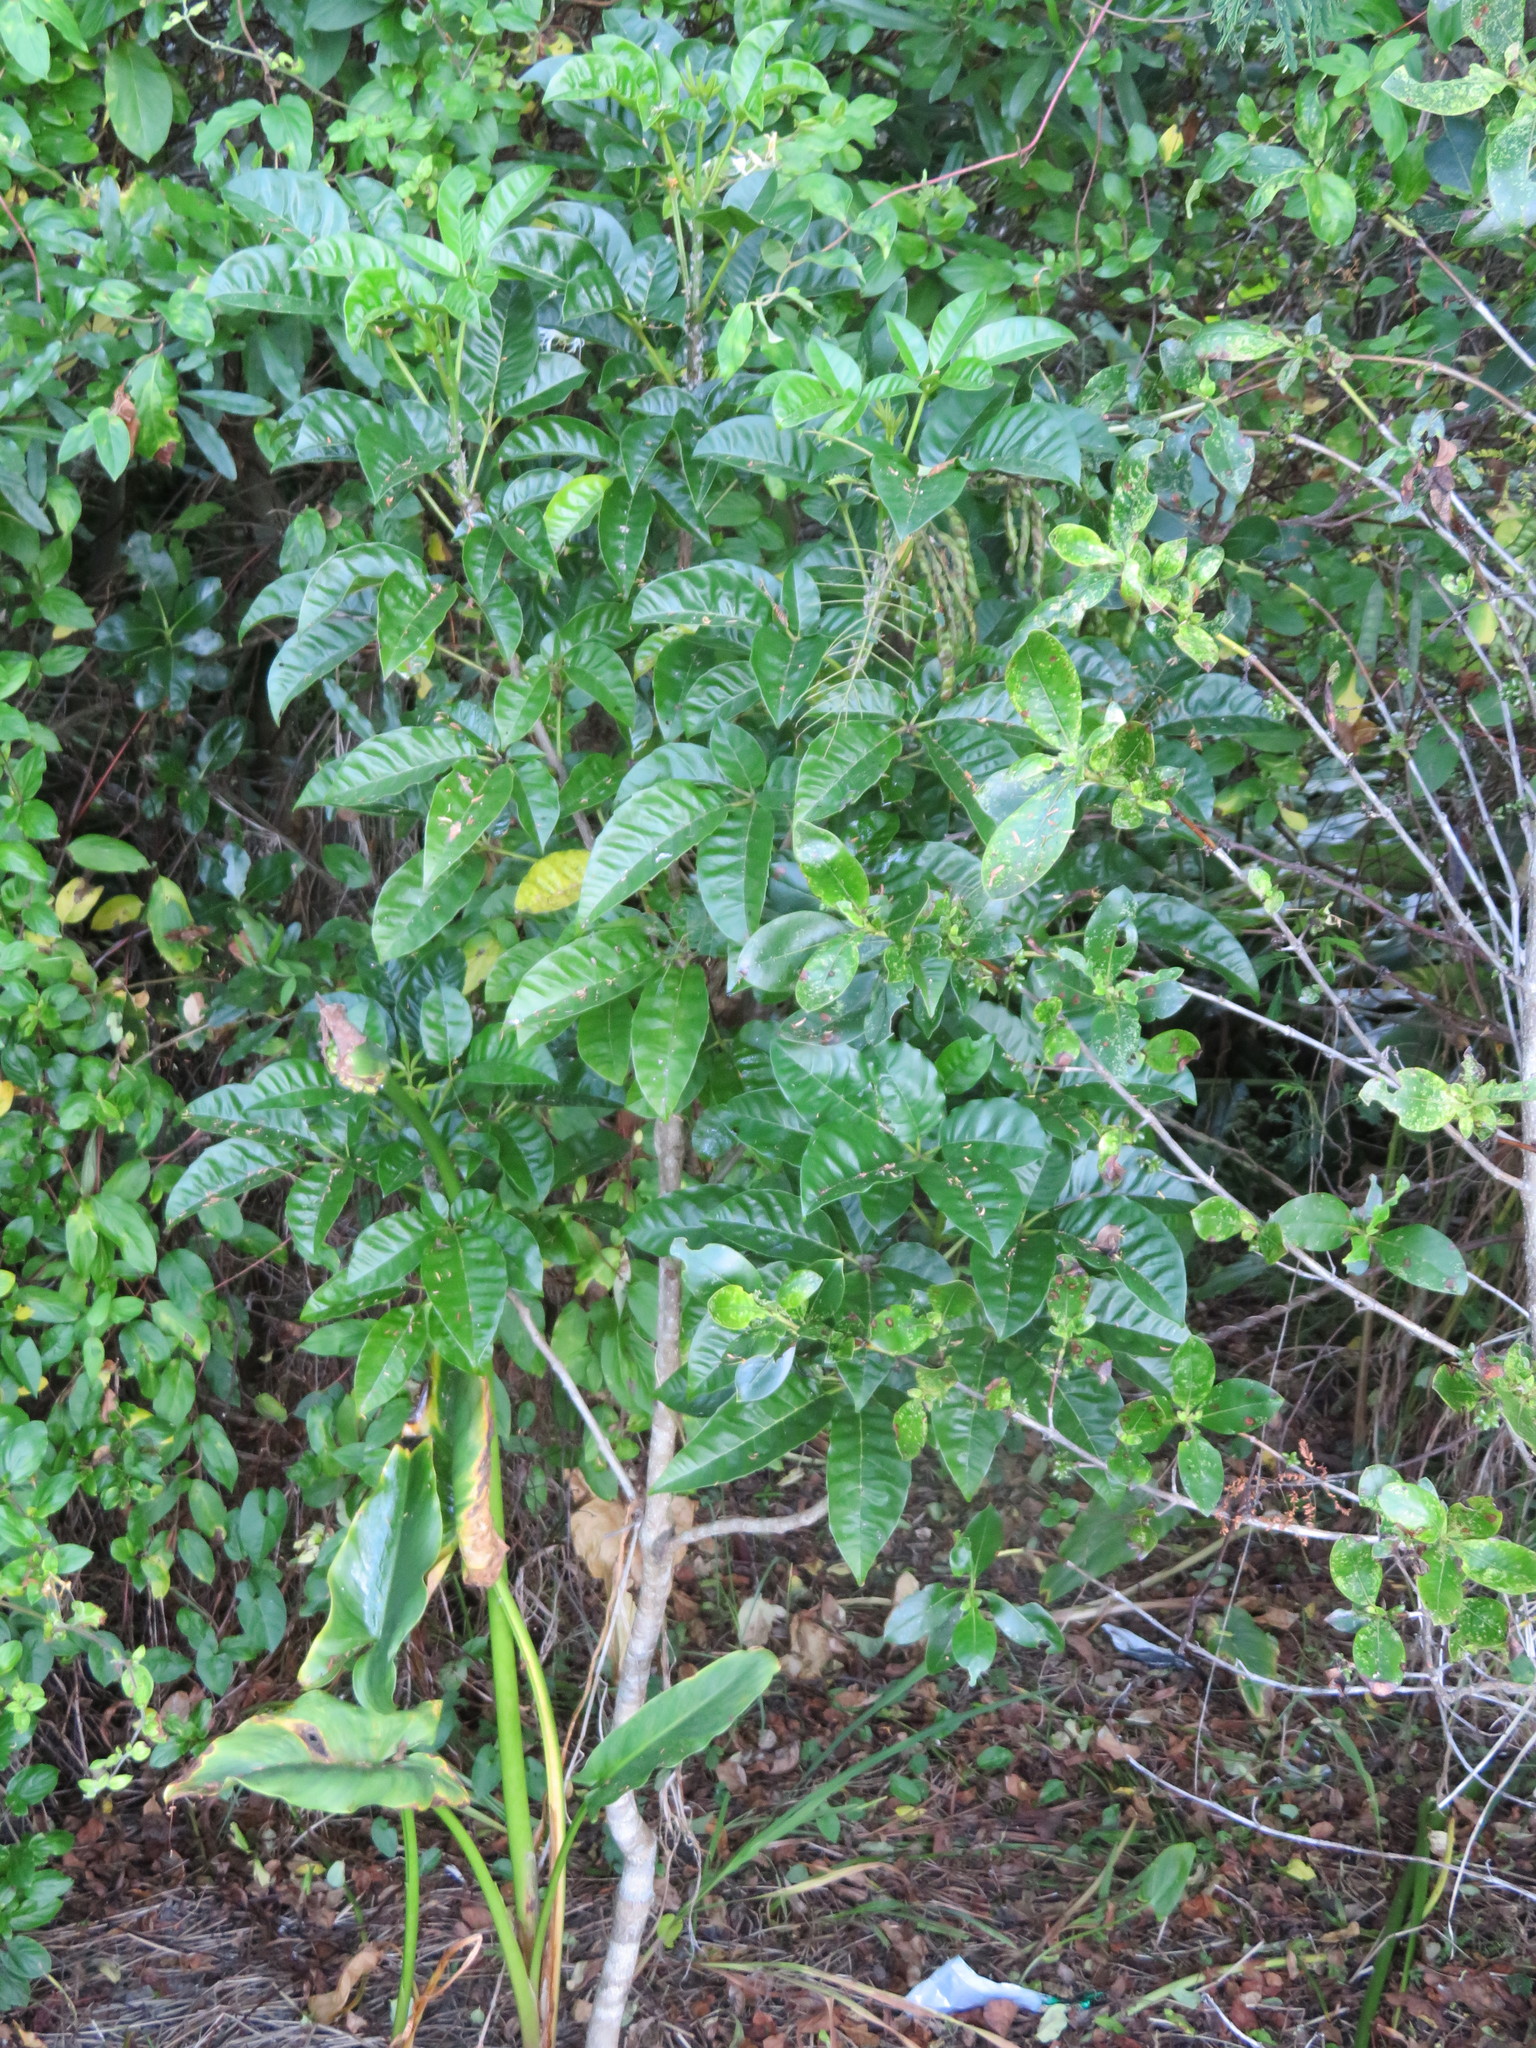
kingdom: Plantae
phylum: Tracheophyta
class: Magnoliopsida
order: Lamiales
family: Lamiaceae
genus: Vitex
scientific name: Vitex lucens
